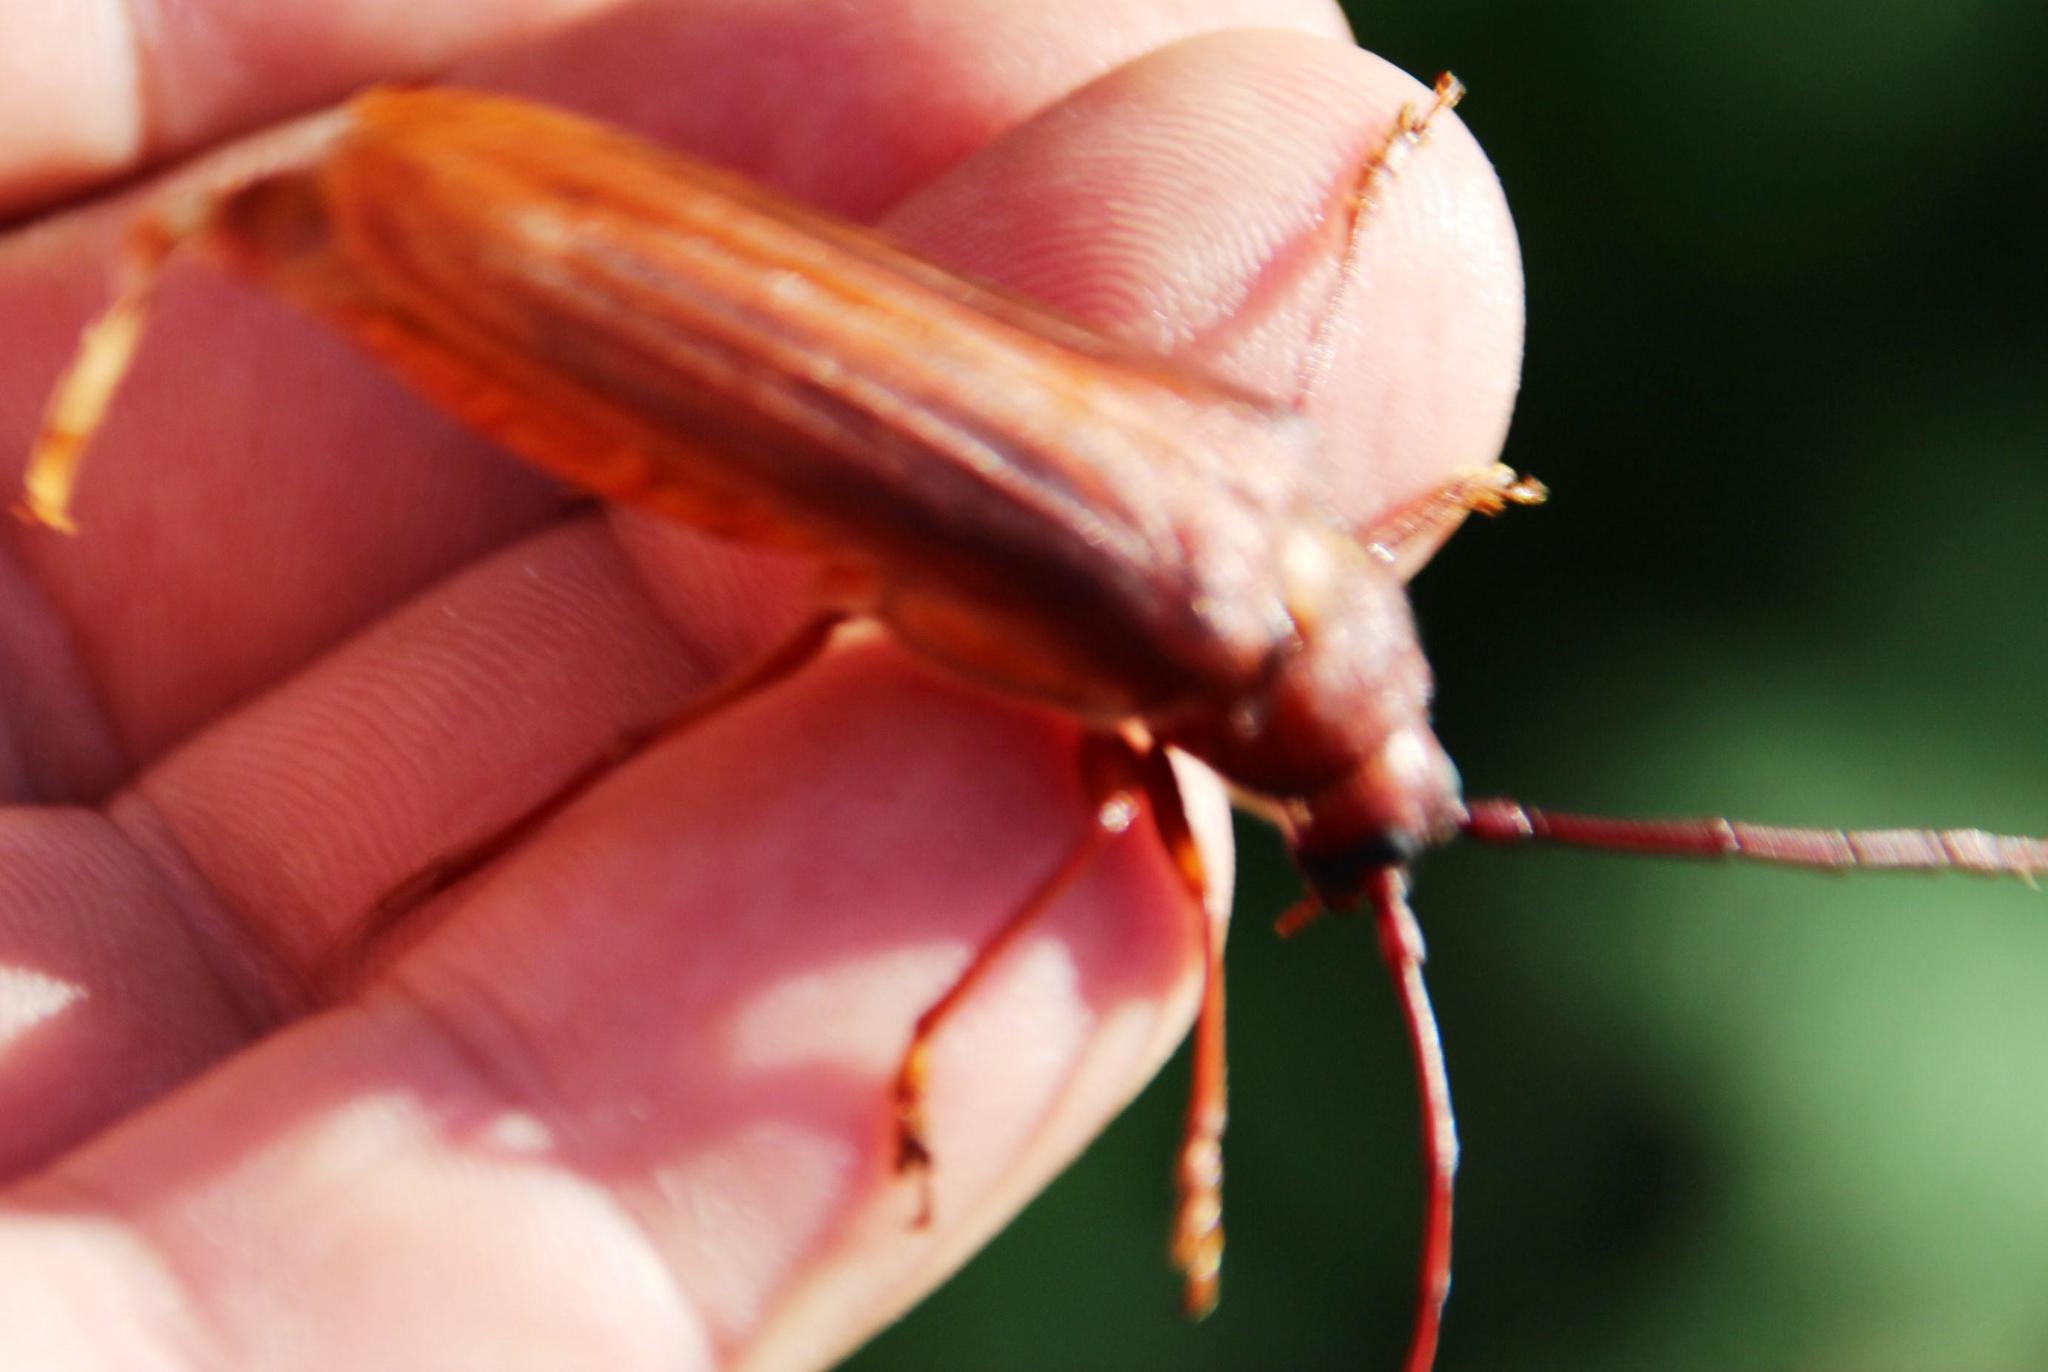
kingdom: Animalia
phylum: Arthropoda
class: Insecta
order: Coleoptera
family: Cerambycidae
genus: Delocheilus
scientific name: Delocheilus prionoides
